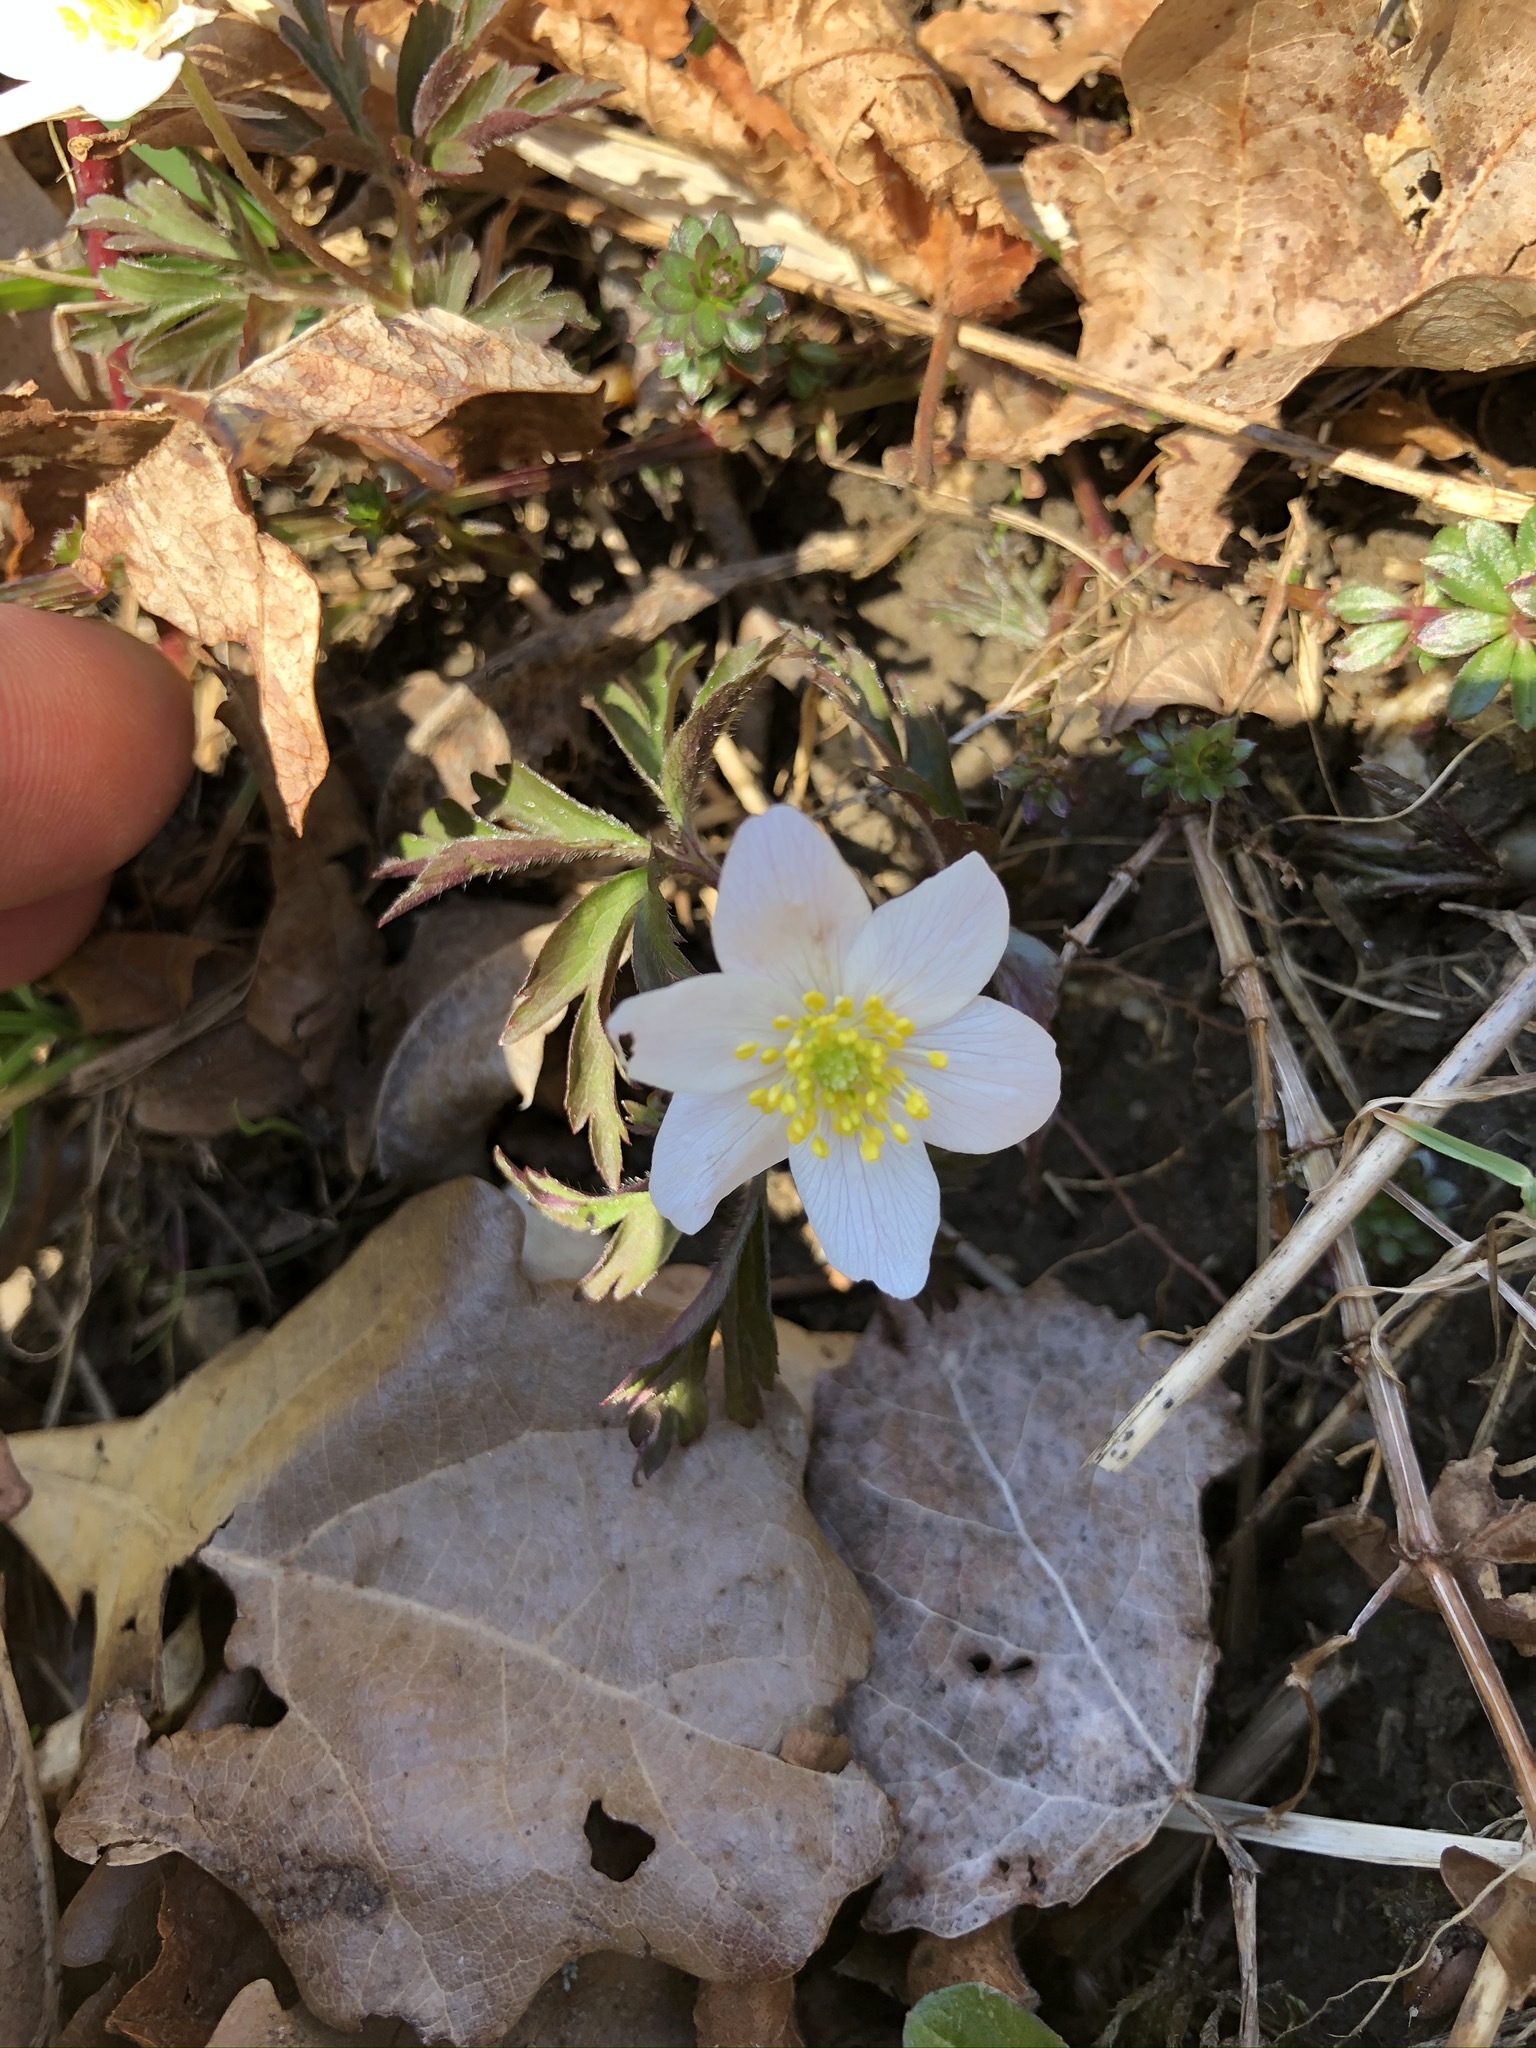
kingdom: Plantae
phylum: Tracheophyta
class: Magnoliopsida
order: Ranunculales
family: Ranunculaceae
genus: Anemone
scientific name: Anemone nemorosa
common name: Wood anemone
